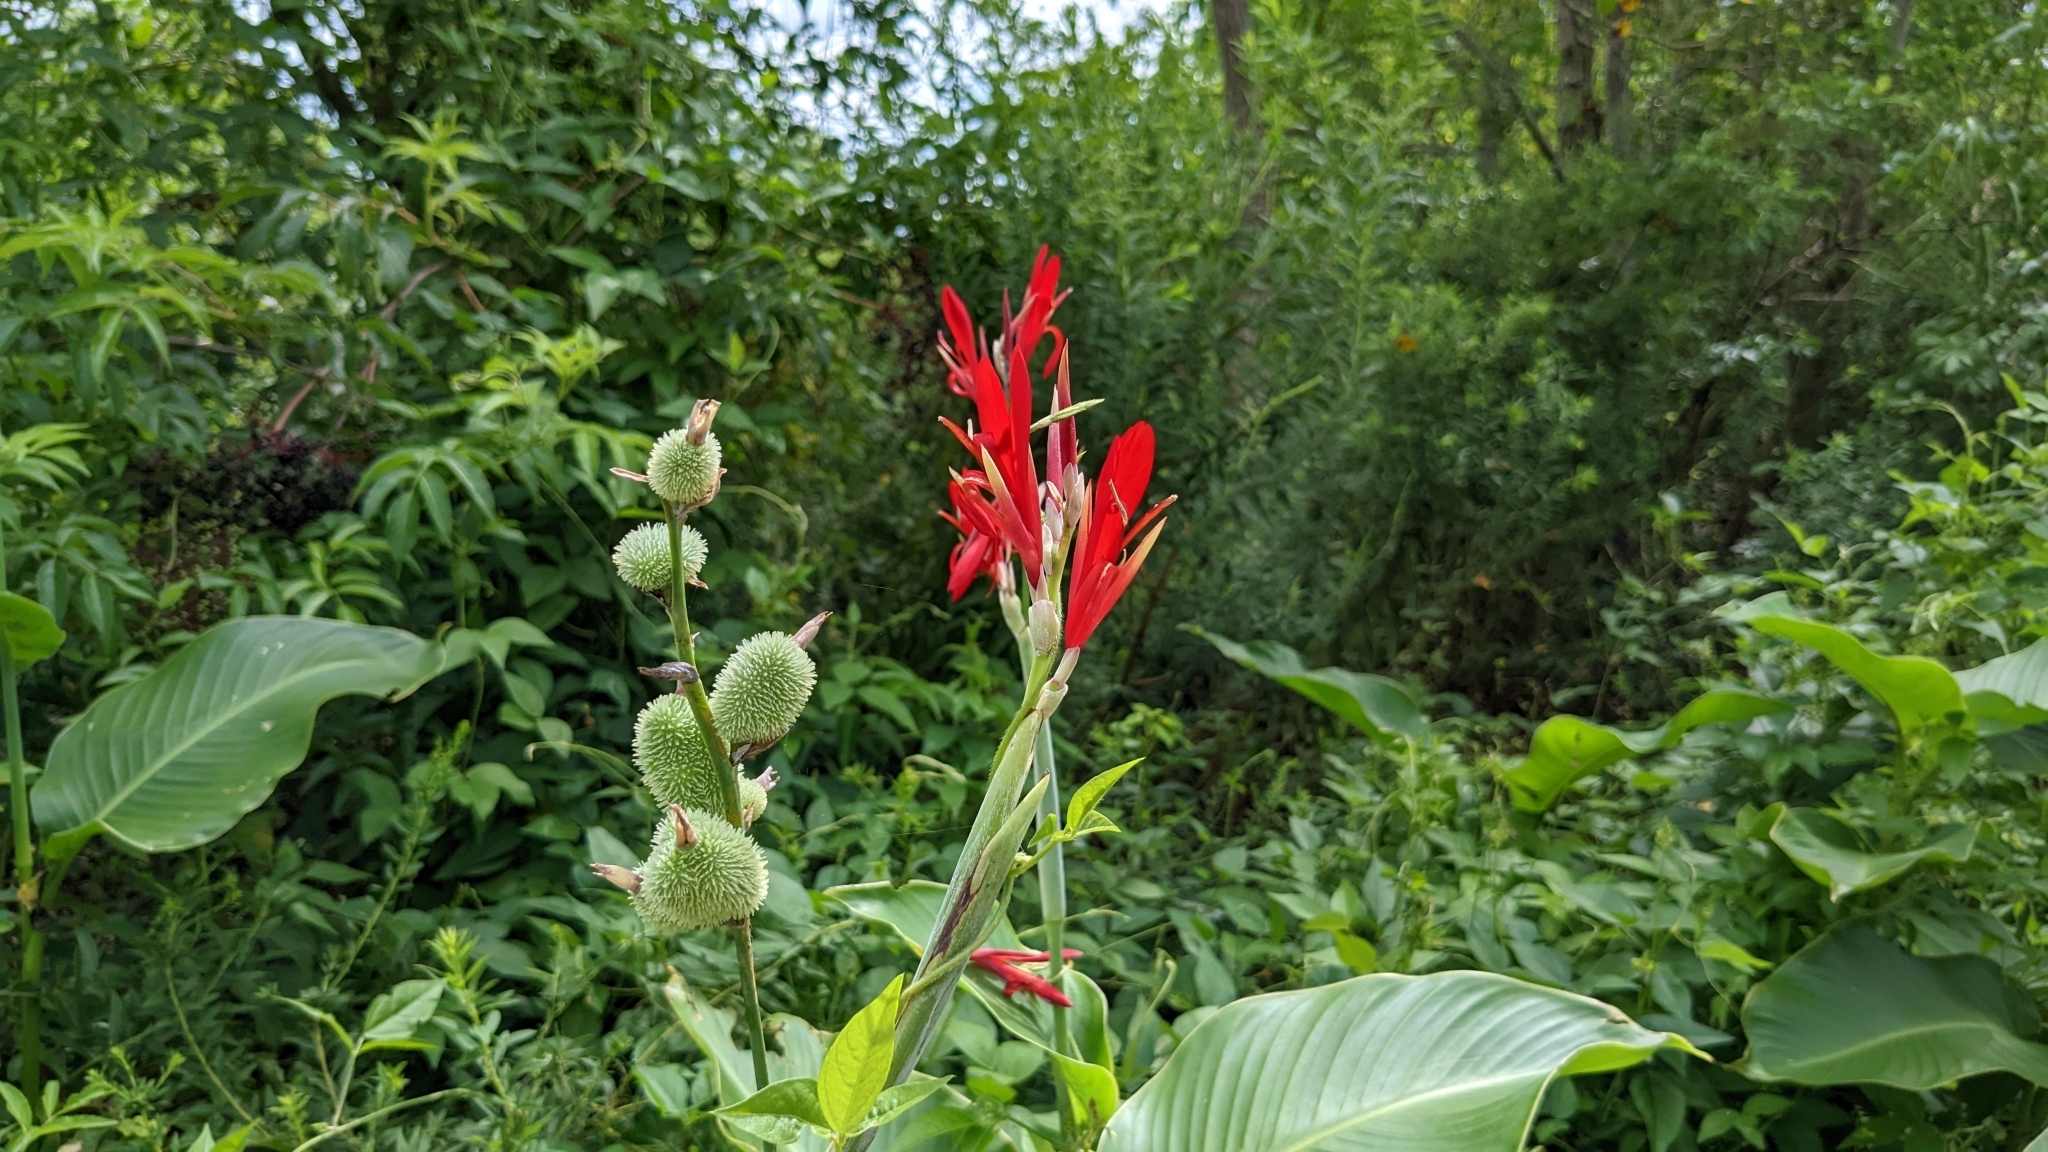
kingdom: Plantae
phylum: Tracheophyta
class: Liliopsida
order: Zingiberales
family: Cannaceae
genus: Canna
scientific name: Canna indica
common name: Indian shot
